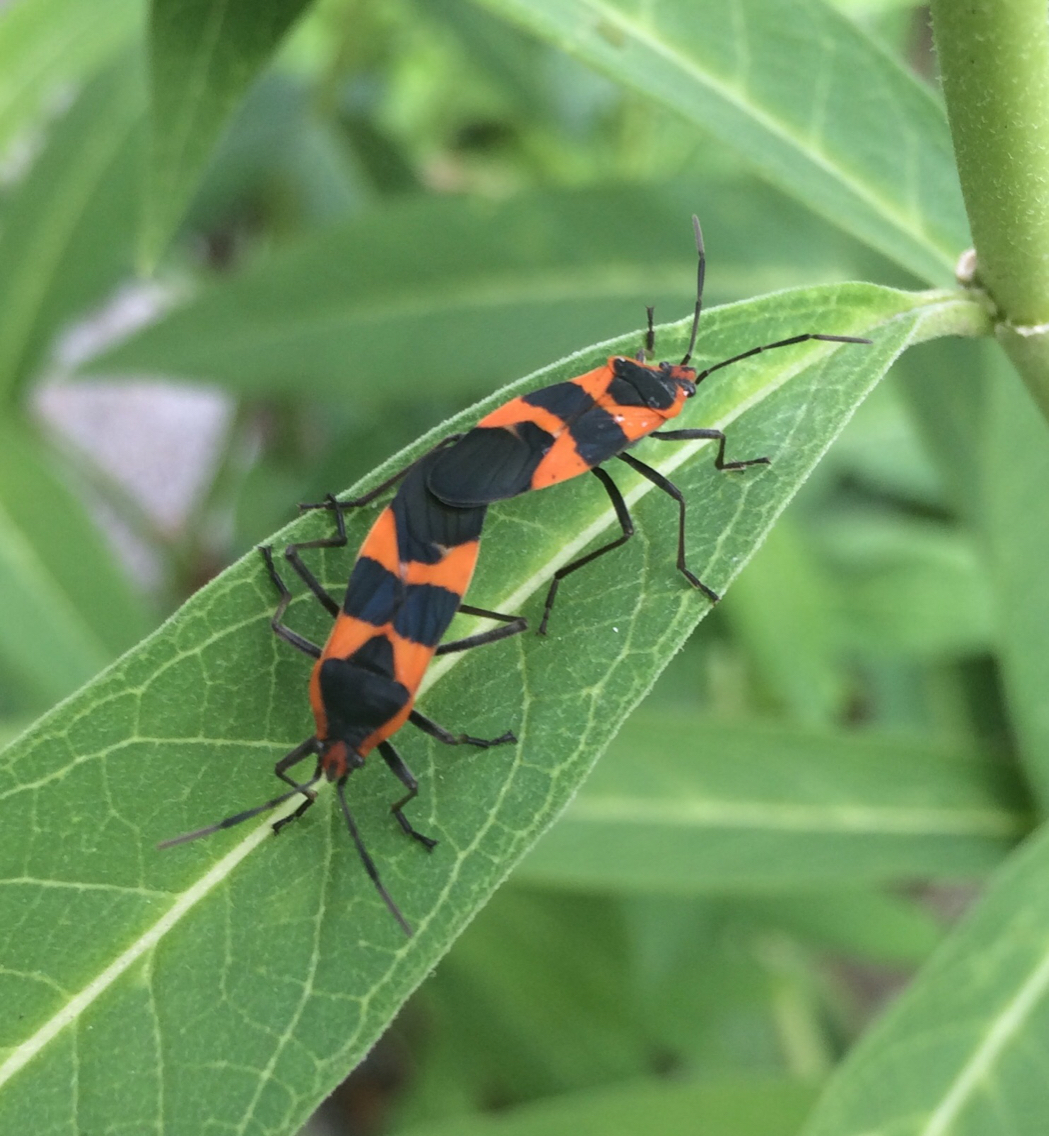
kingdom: Animalia
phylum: Arthropoda
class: Insecta
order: Hemiptera
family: Lygaeidae
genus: Oncopeltus
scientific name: Oncopeltus fasciatus
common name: Large milkweed bug
